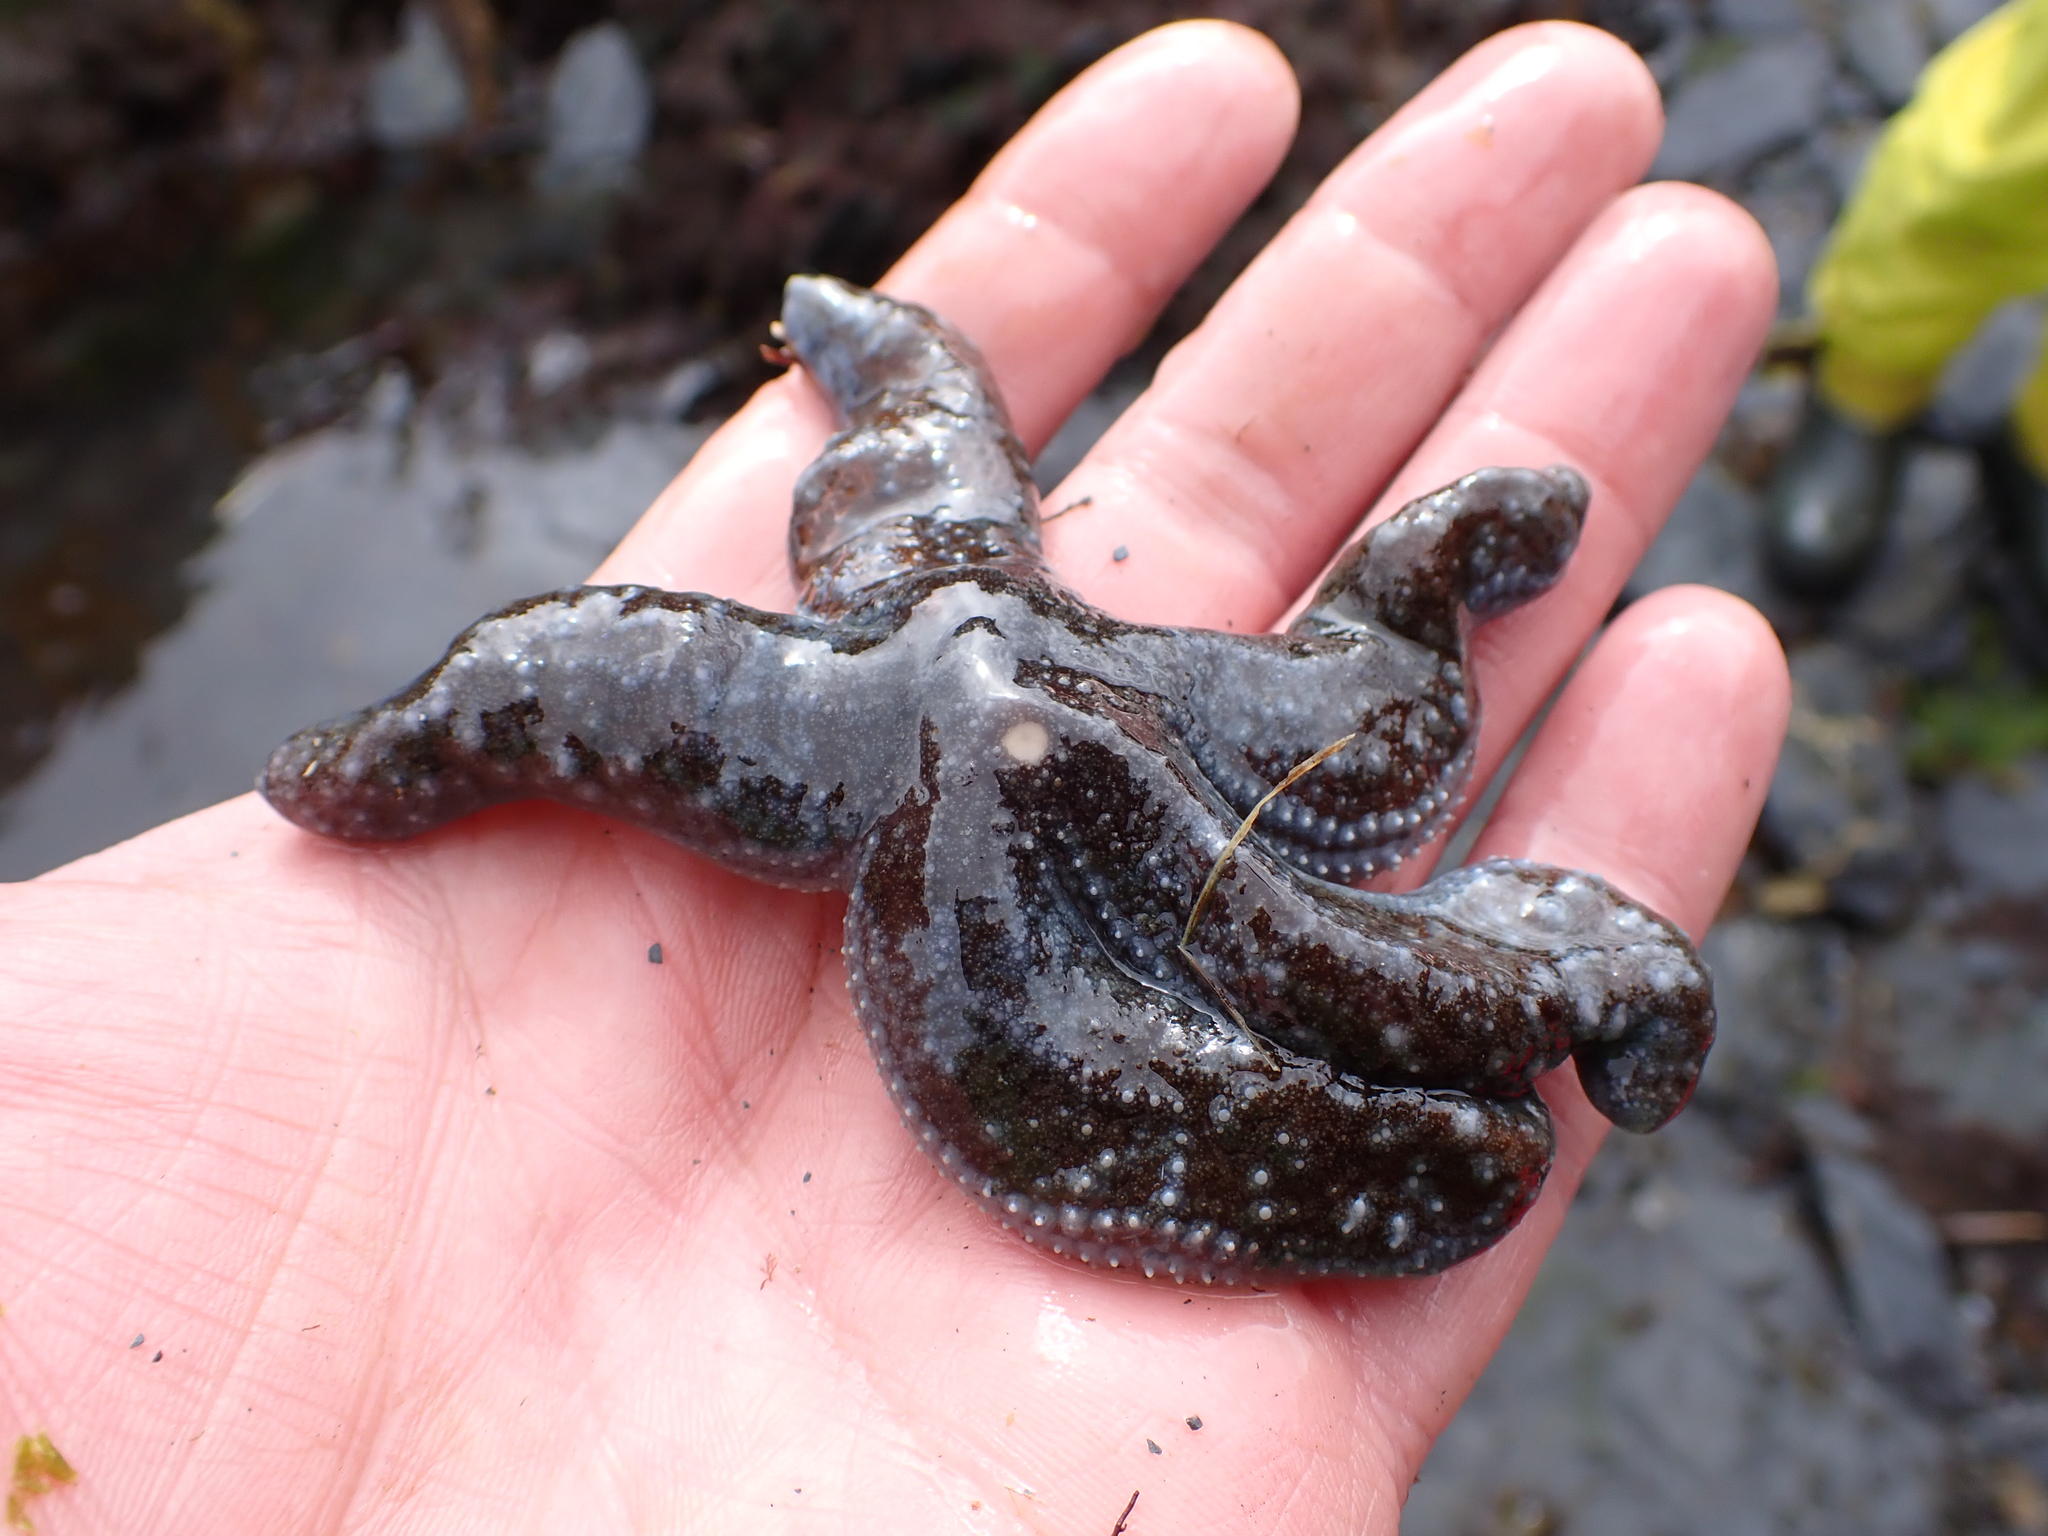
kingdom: Animalia
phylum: Echinodermata
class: Asteroidea
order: Forcipulatida
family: Asteriidae
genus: Evasterias
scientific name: Evasterias troschelii
